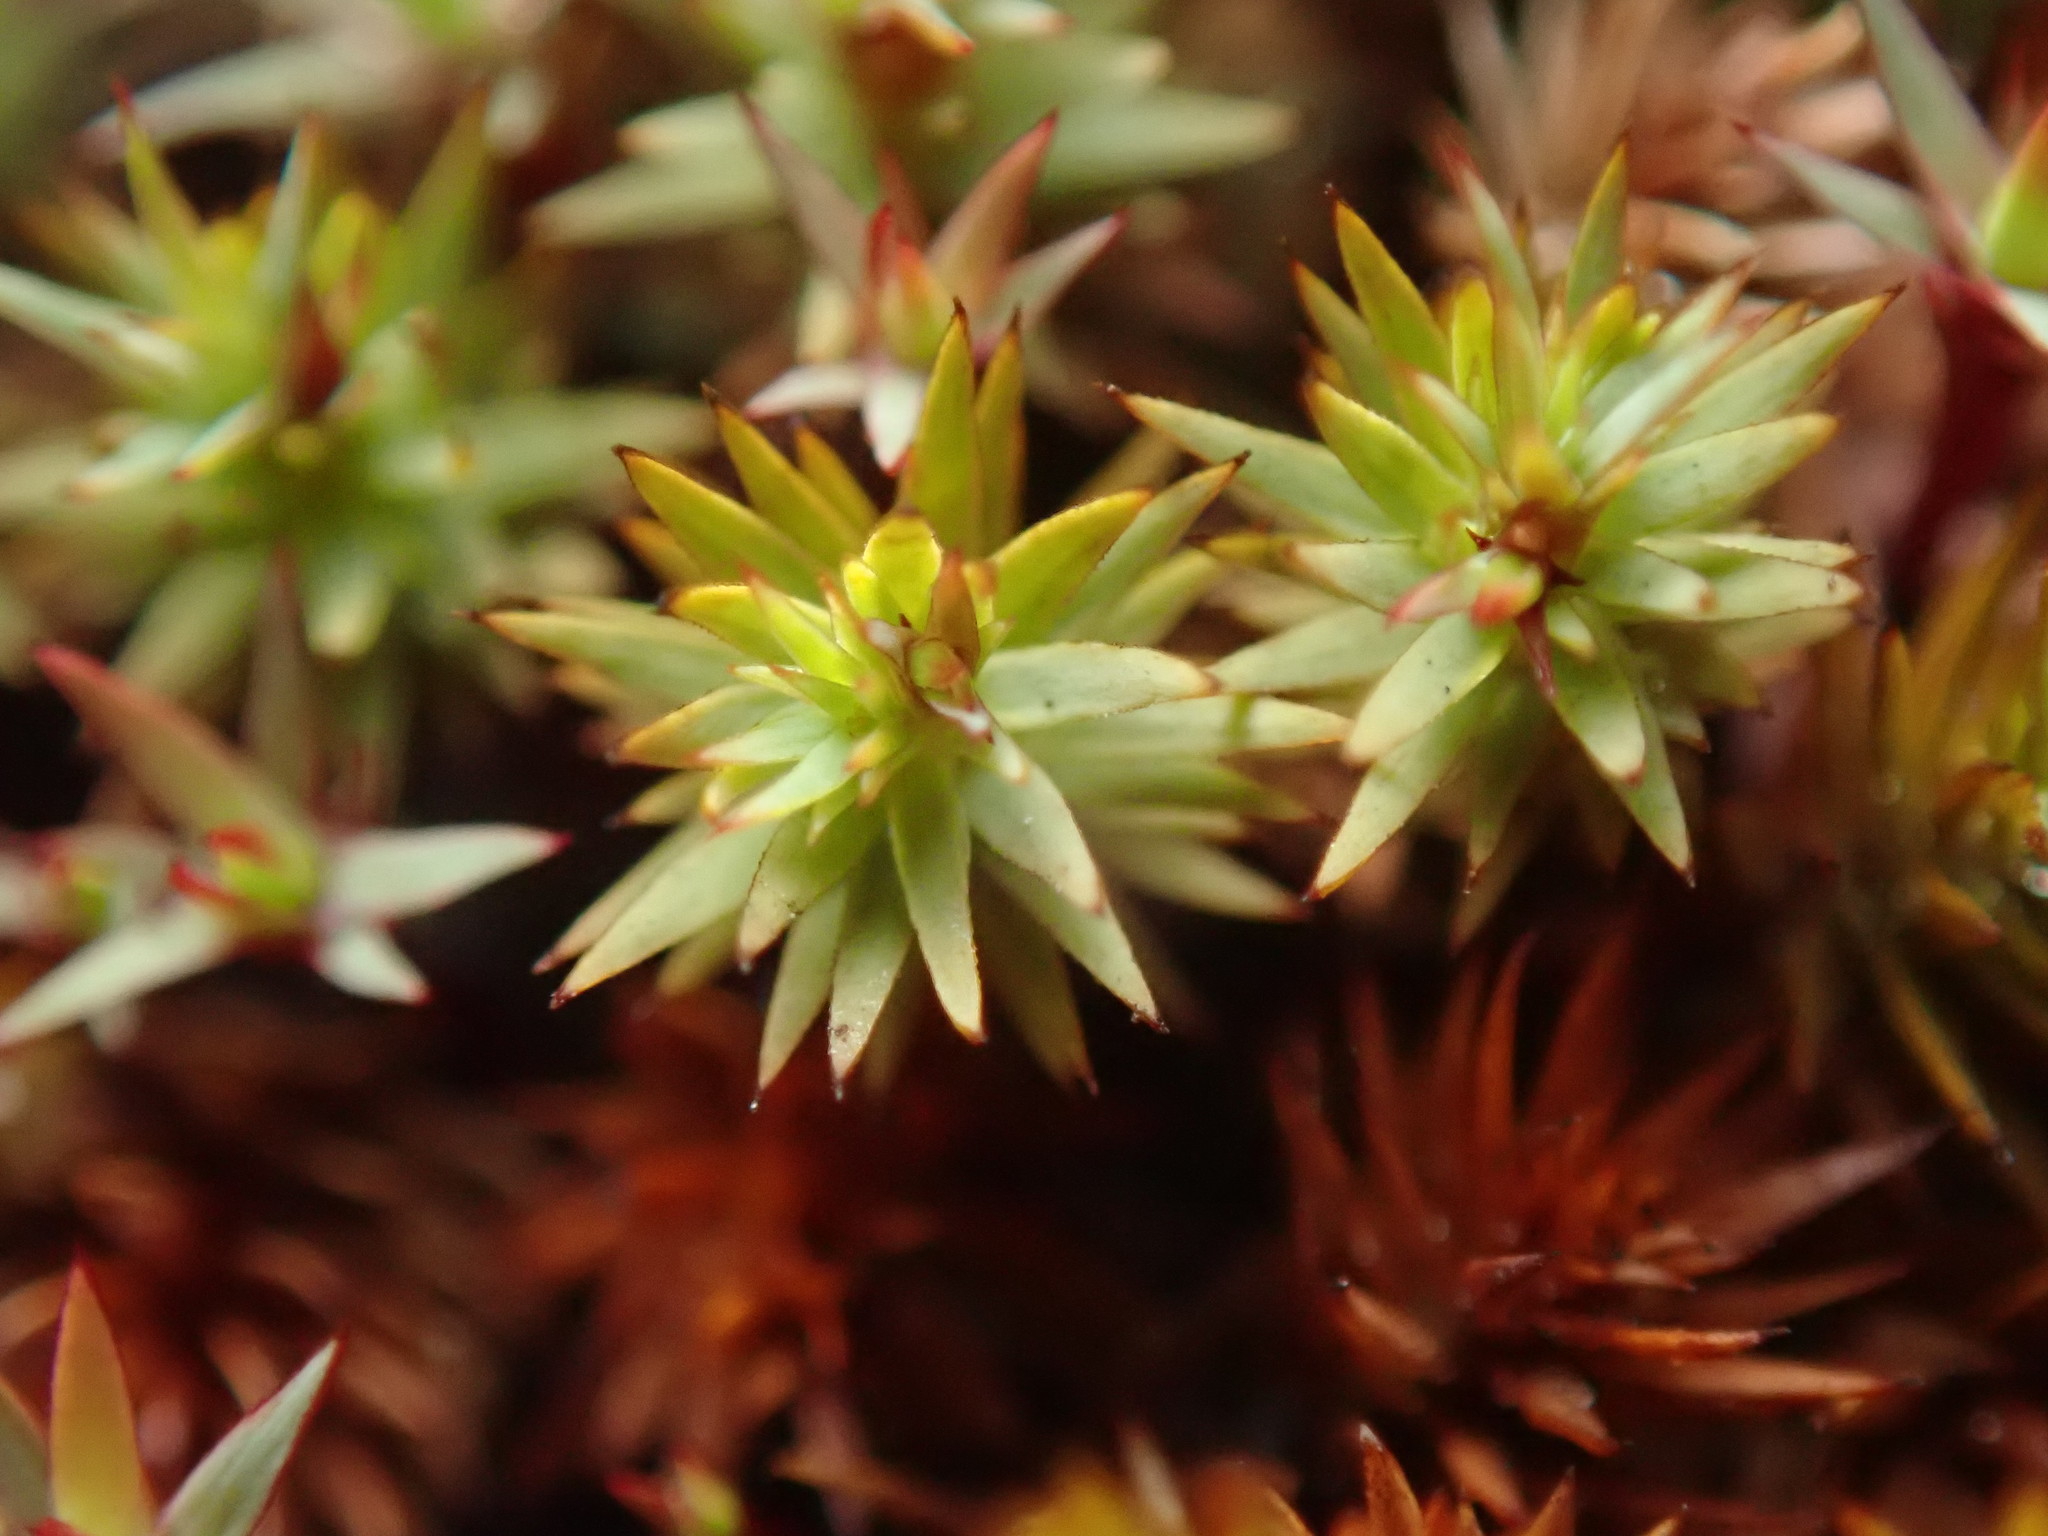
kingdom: Plantae
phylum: Bryophyta
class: Polytrichopsida
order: Polytrichales
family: Polytrichaceae
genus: Pogonatum
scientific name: Pogonatum urnigerum
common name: Urn hair moss
